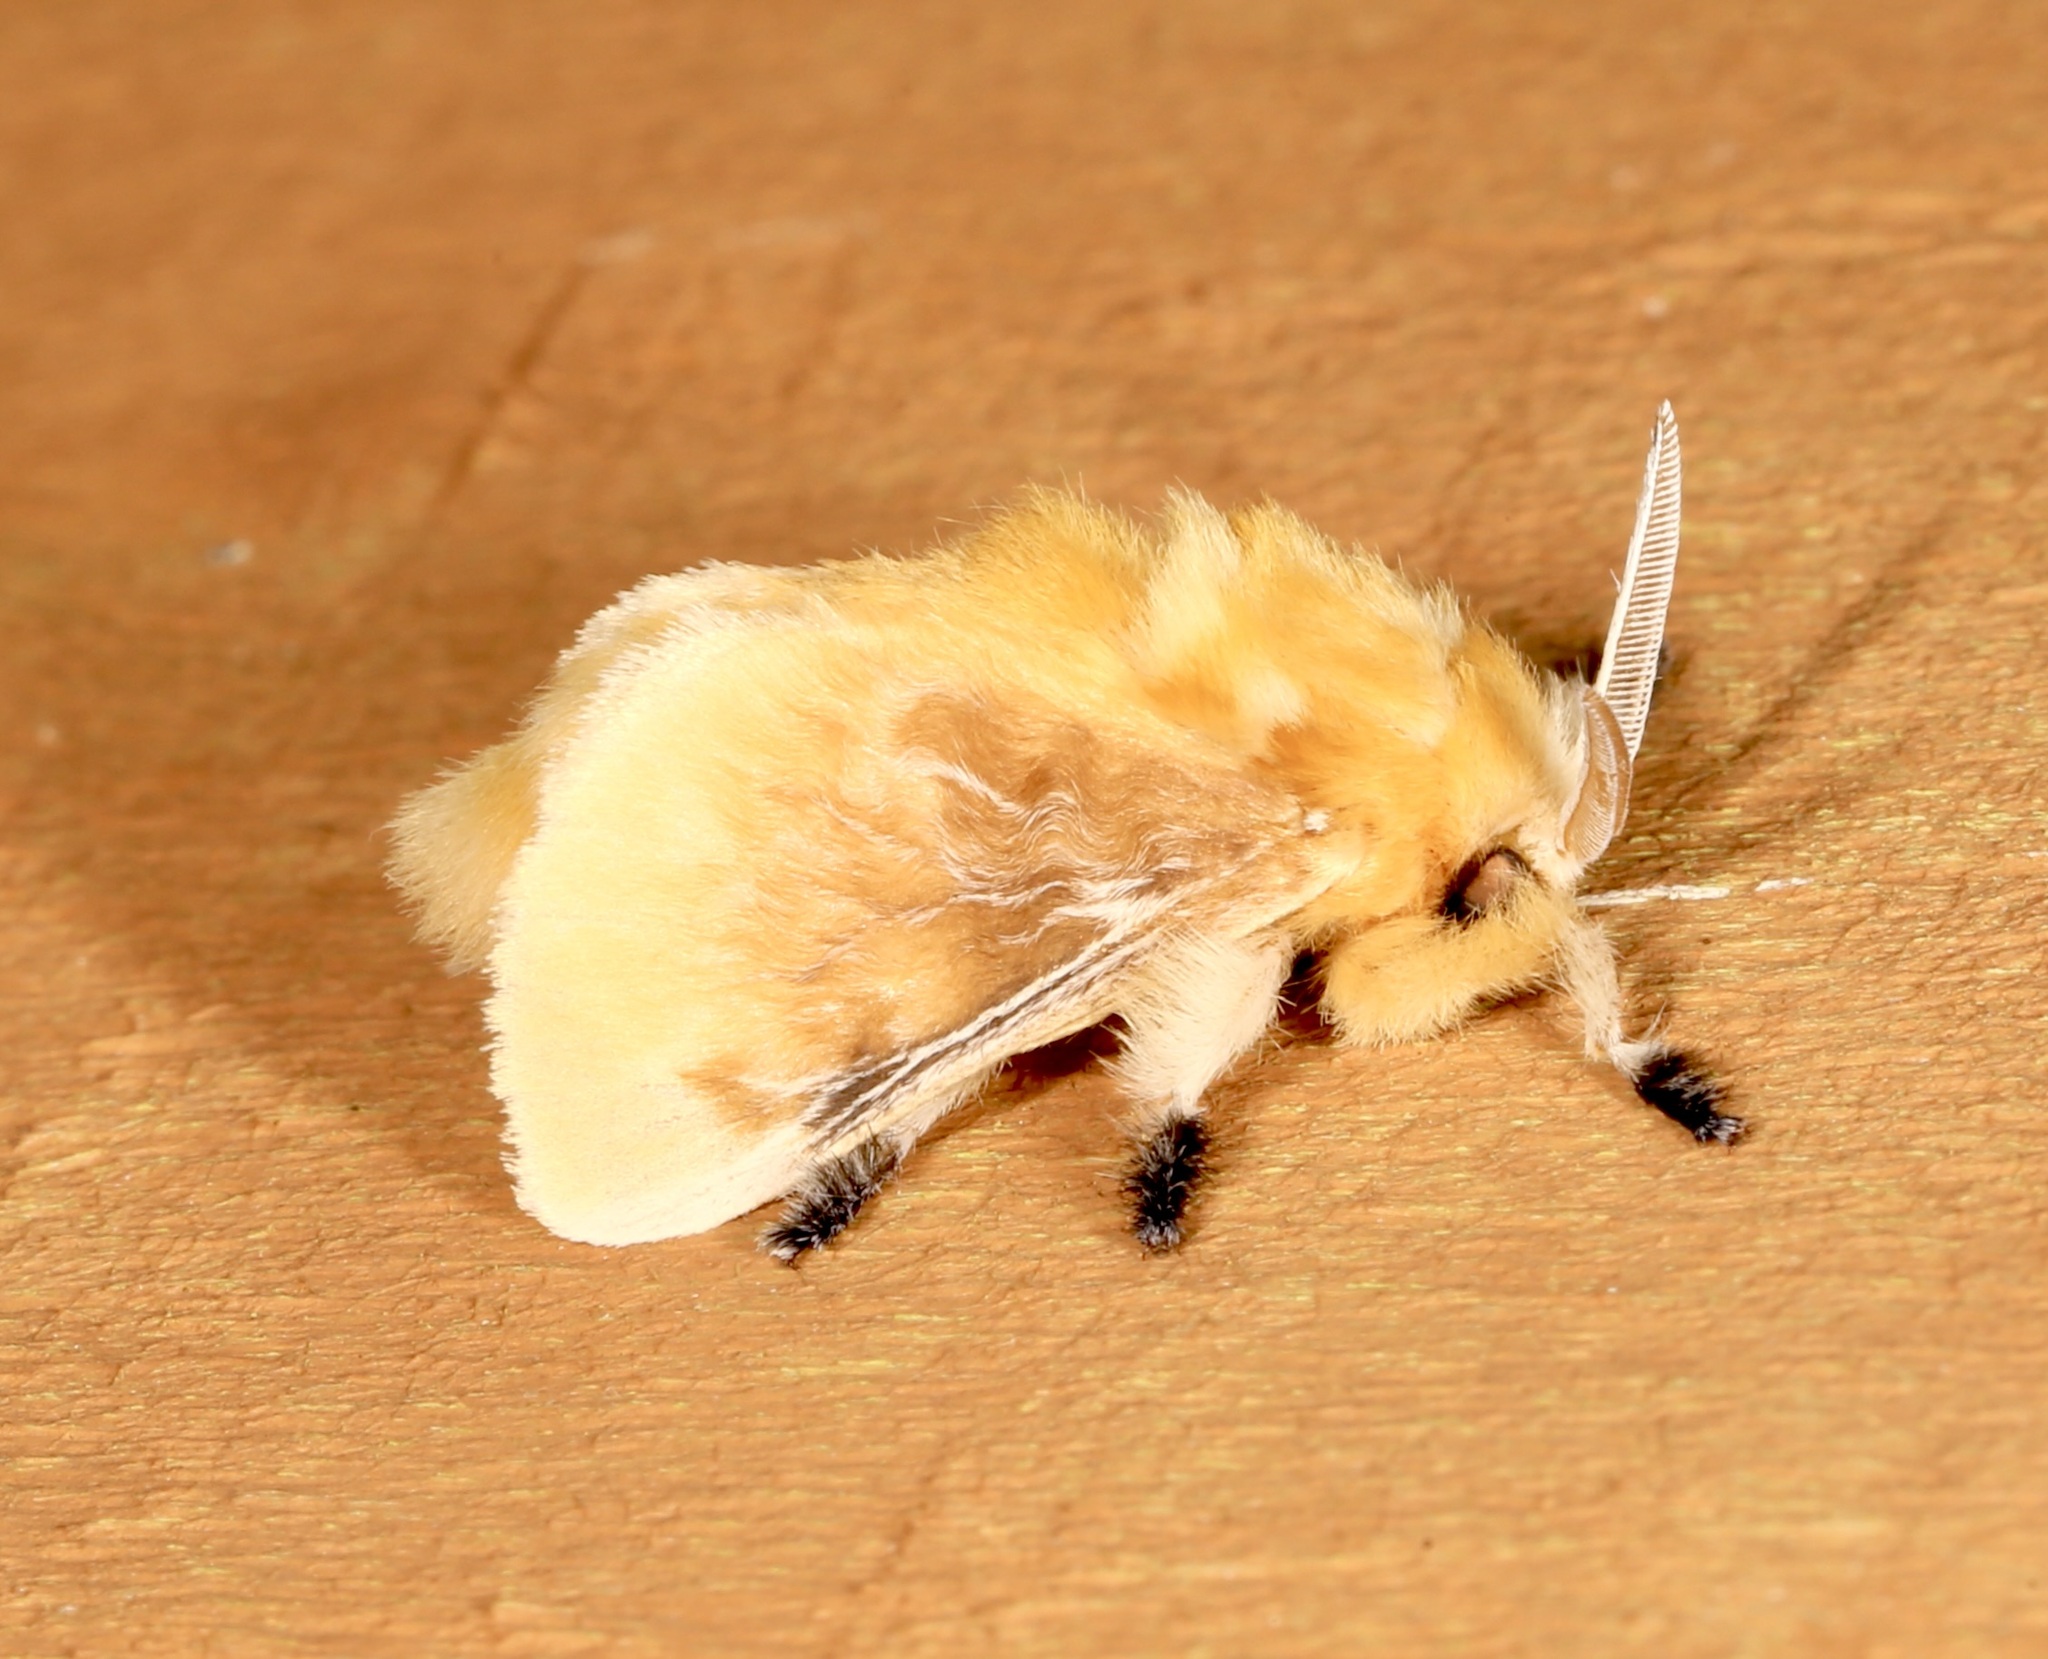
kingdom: Animalia
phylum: Arthropoda
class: Insecta
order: Lepidoptera
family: Megalopygidae
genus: Megalopyge
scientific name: Megalopyge opercularis
